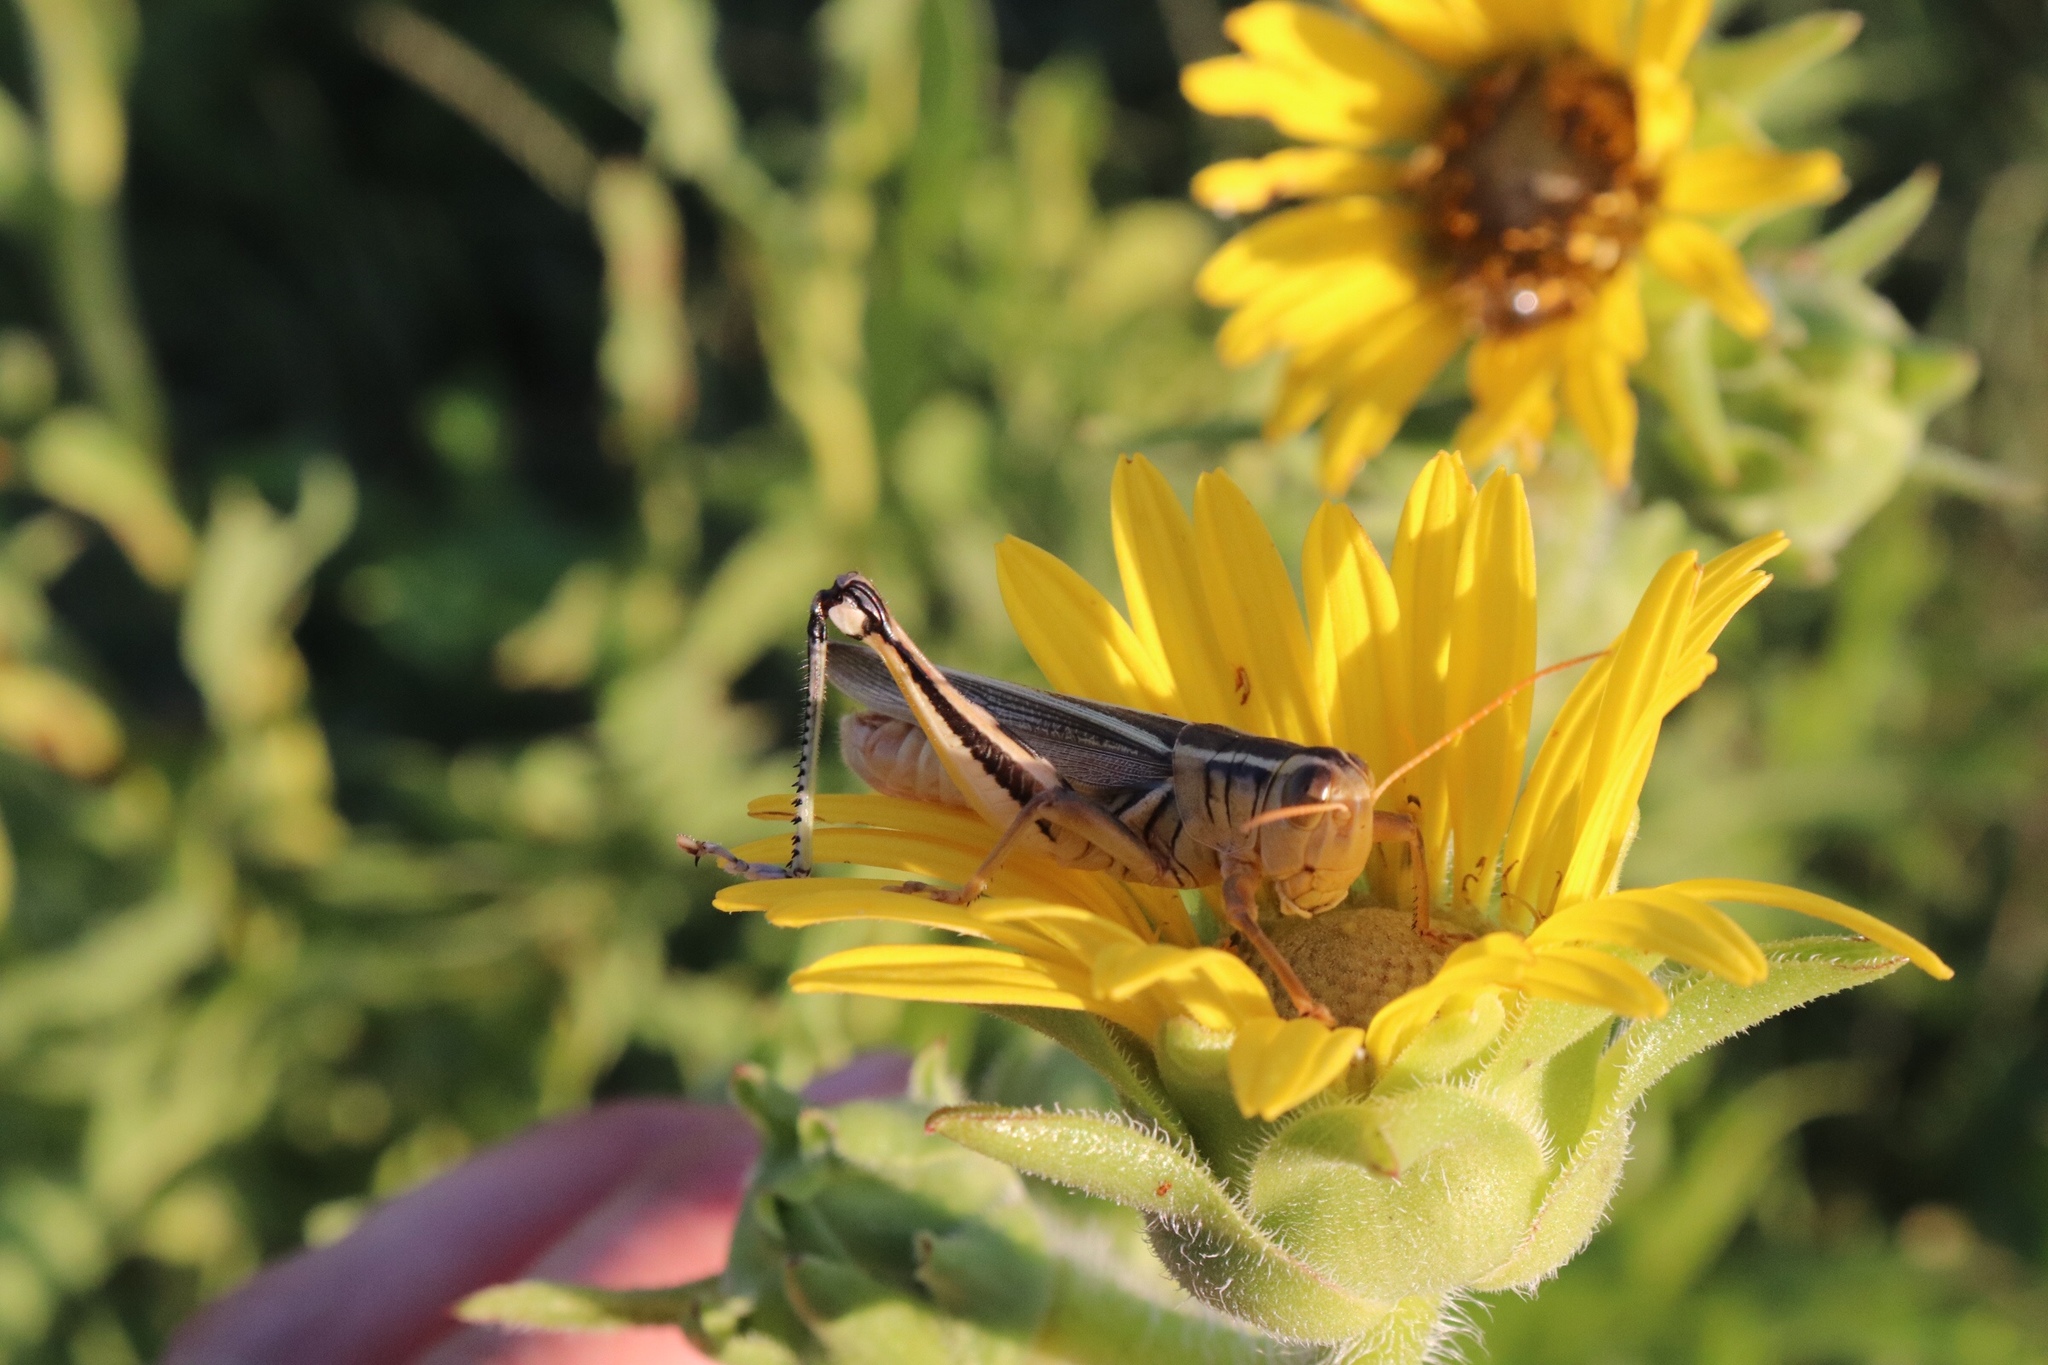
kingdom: Animalia
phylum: Arthropoda
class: Insecta
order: Orthoptera
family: Acrididae
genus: Melanoplus
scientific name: Melanoplus bivittatus
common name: Two-striped grasshopper
